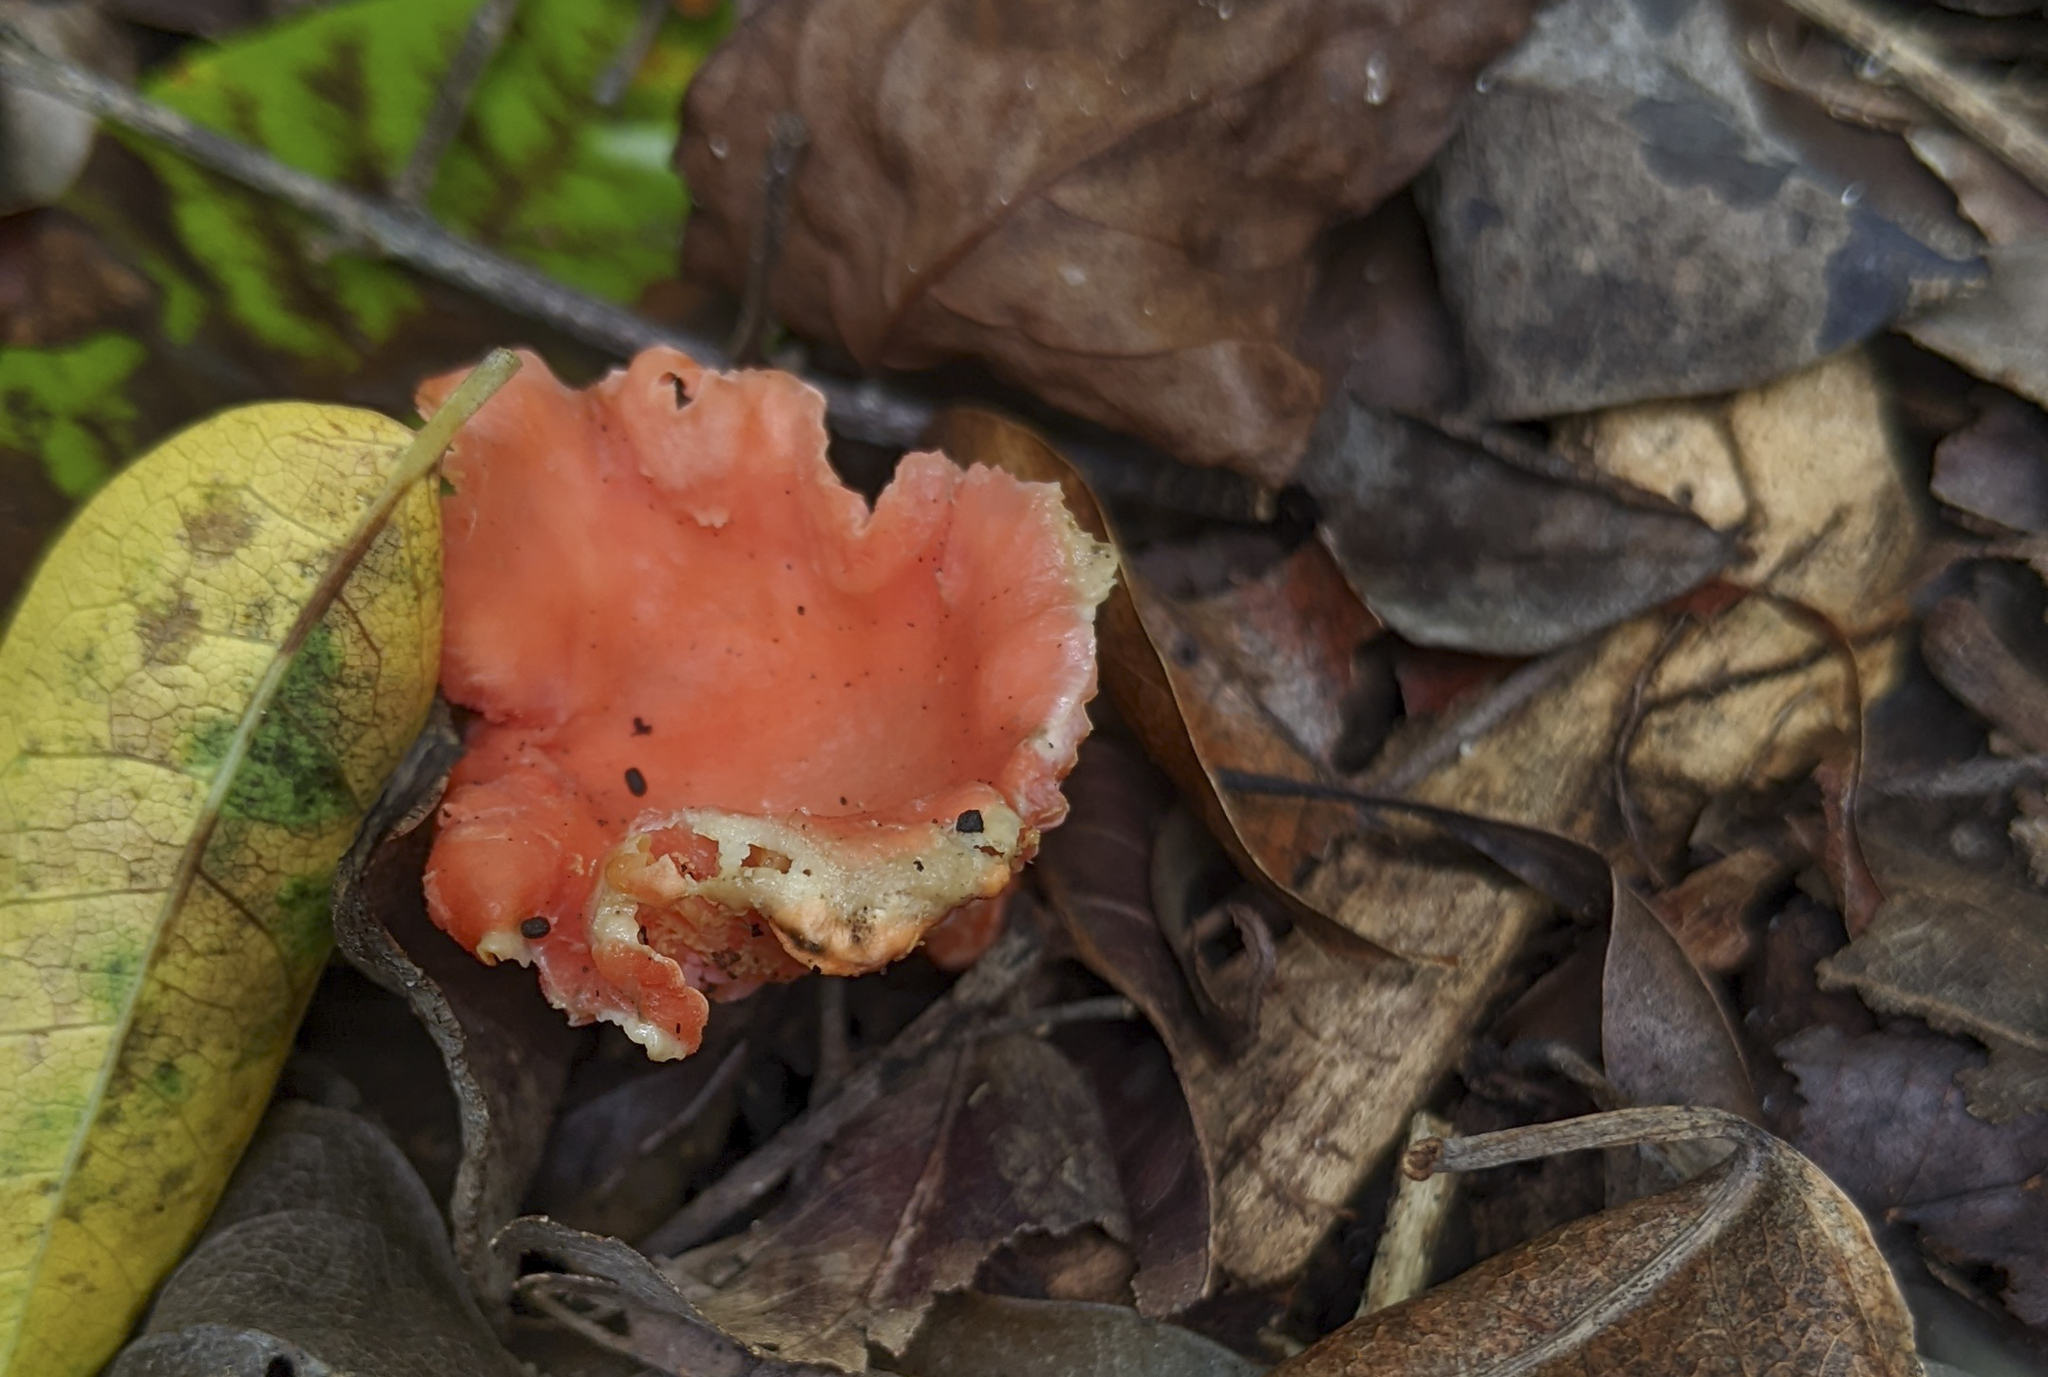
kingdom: Fungi
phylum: Basidiomycota
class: Agaricomycetes
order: Cantharellales
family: Hydnaceae
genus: Cantharellus
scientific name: Cantharellus coccolobae
